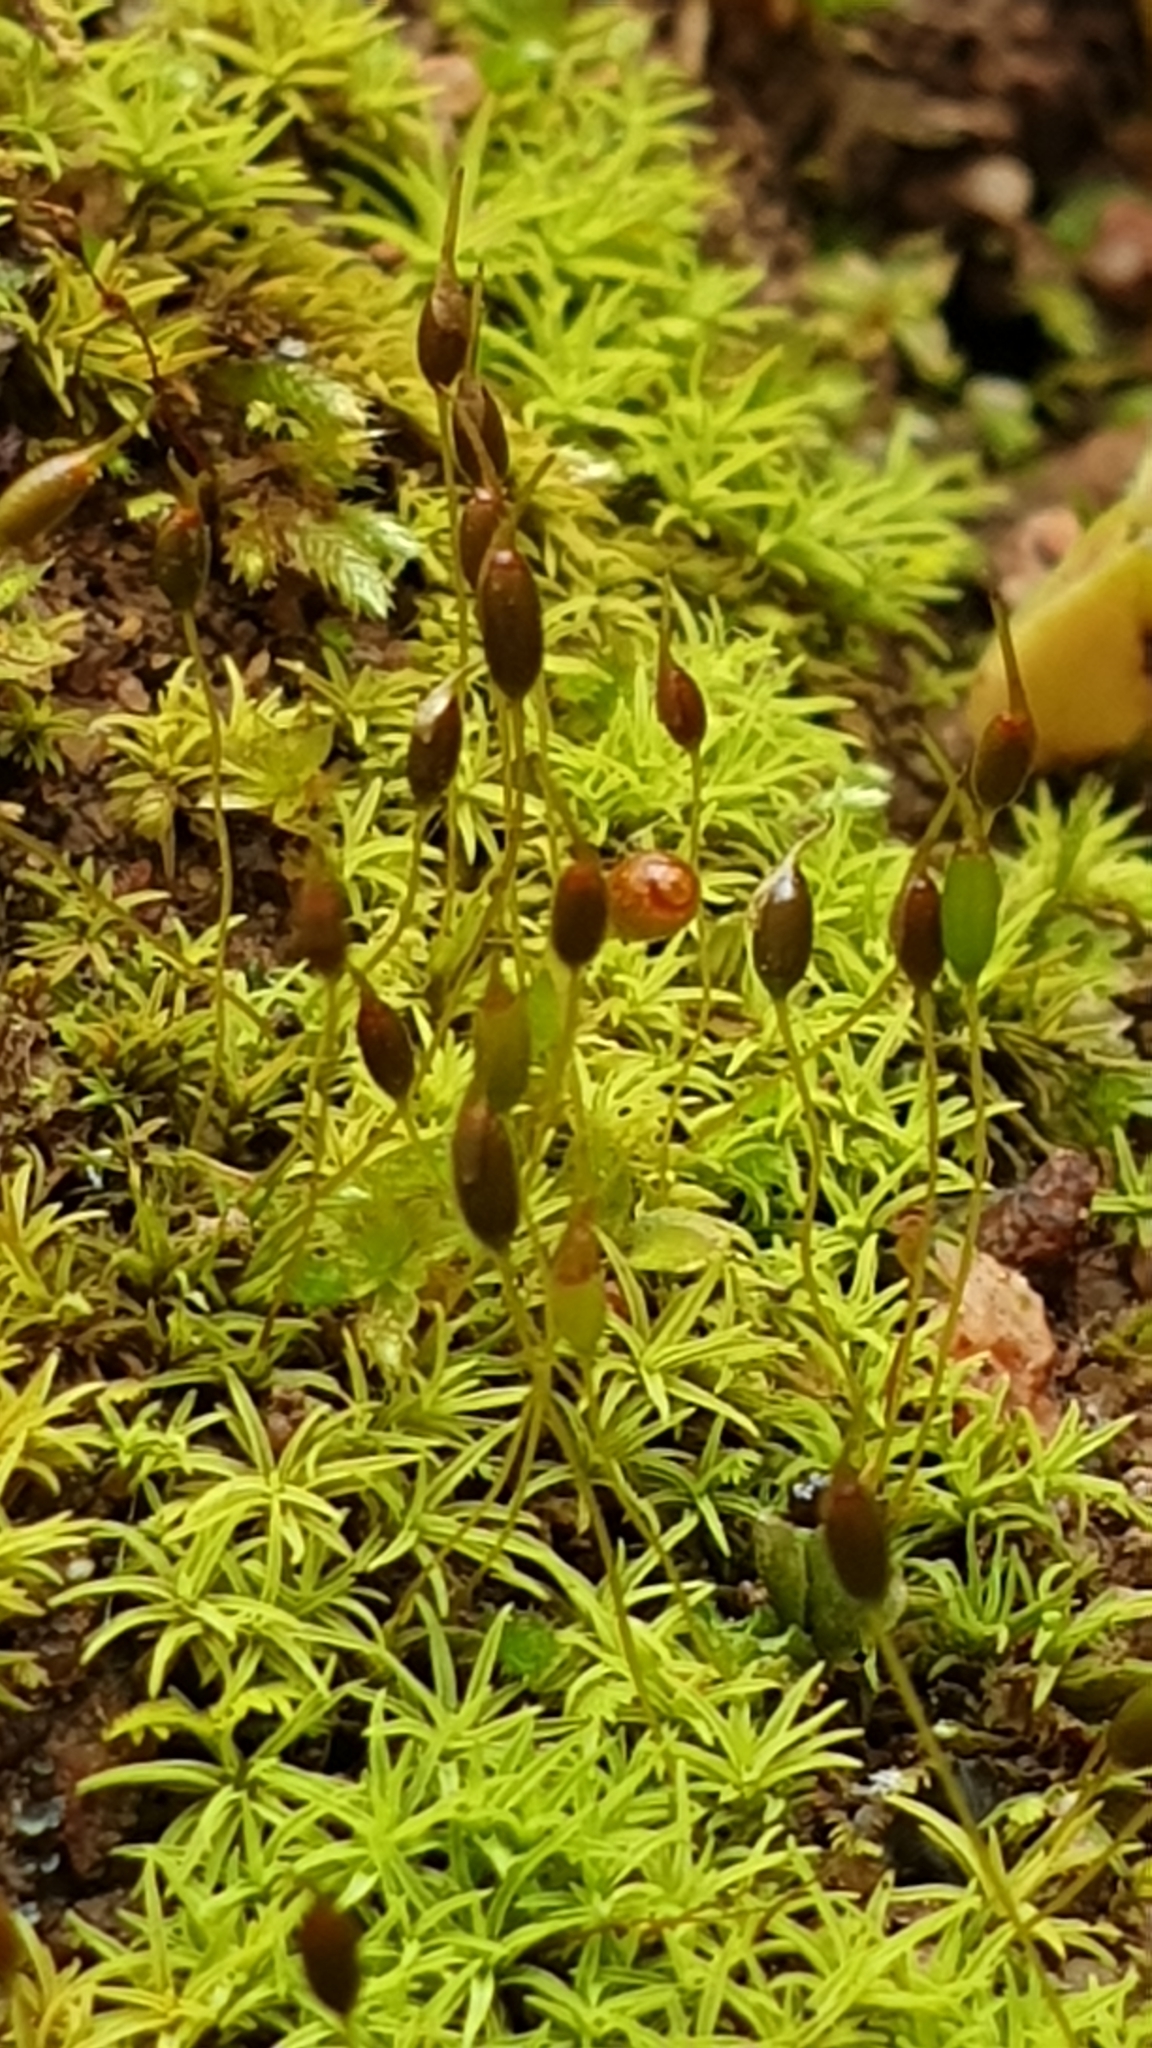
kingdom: Plantae
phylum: Bryophyta
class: Bryopsida
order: Pottiales
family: Pottiaceae
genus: Weissia
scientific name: Weissia controversa
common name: Green-tufted stubble moss
